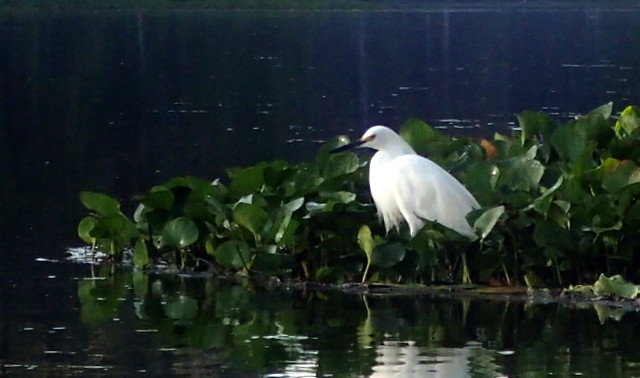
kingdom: Animalia
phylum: Chordata
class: Aves
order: Pelecaniformes
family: Ardeidae
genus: Egretta
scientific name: Egretta thula
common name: Snowy egret
